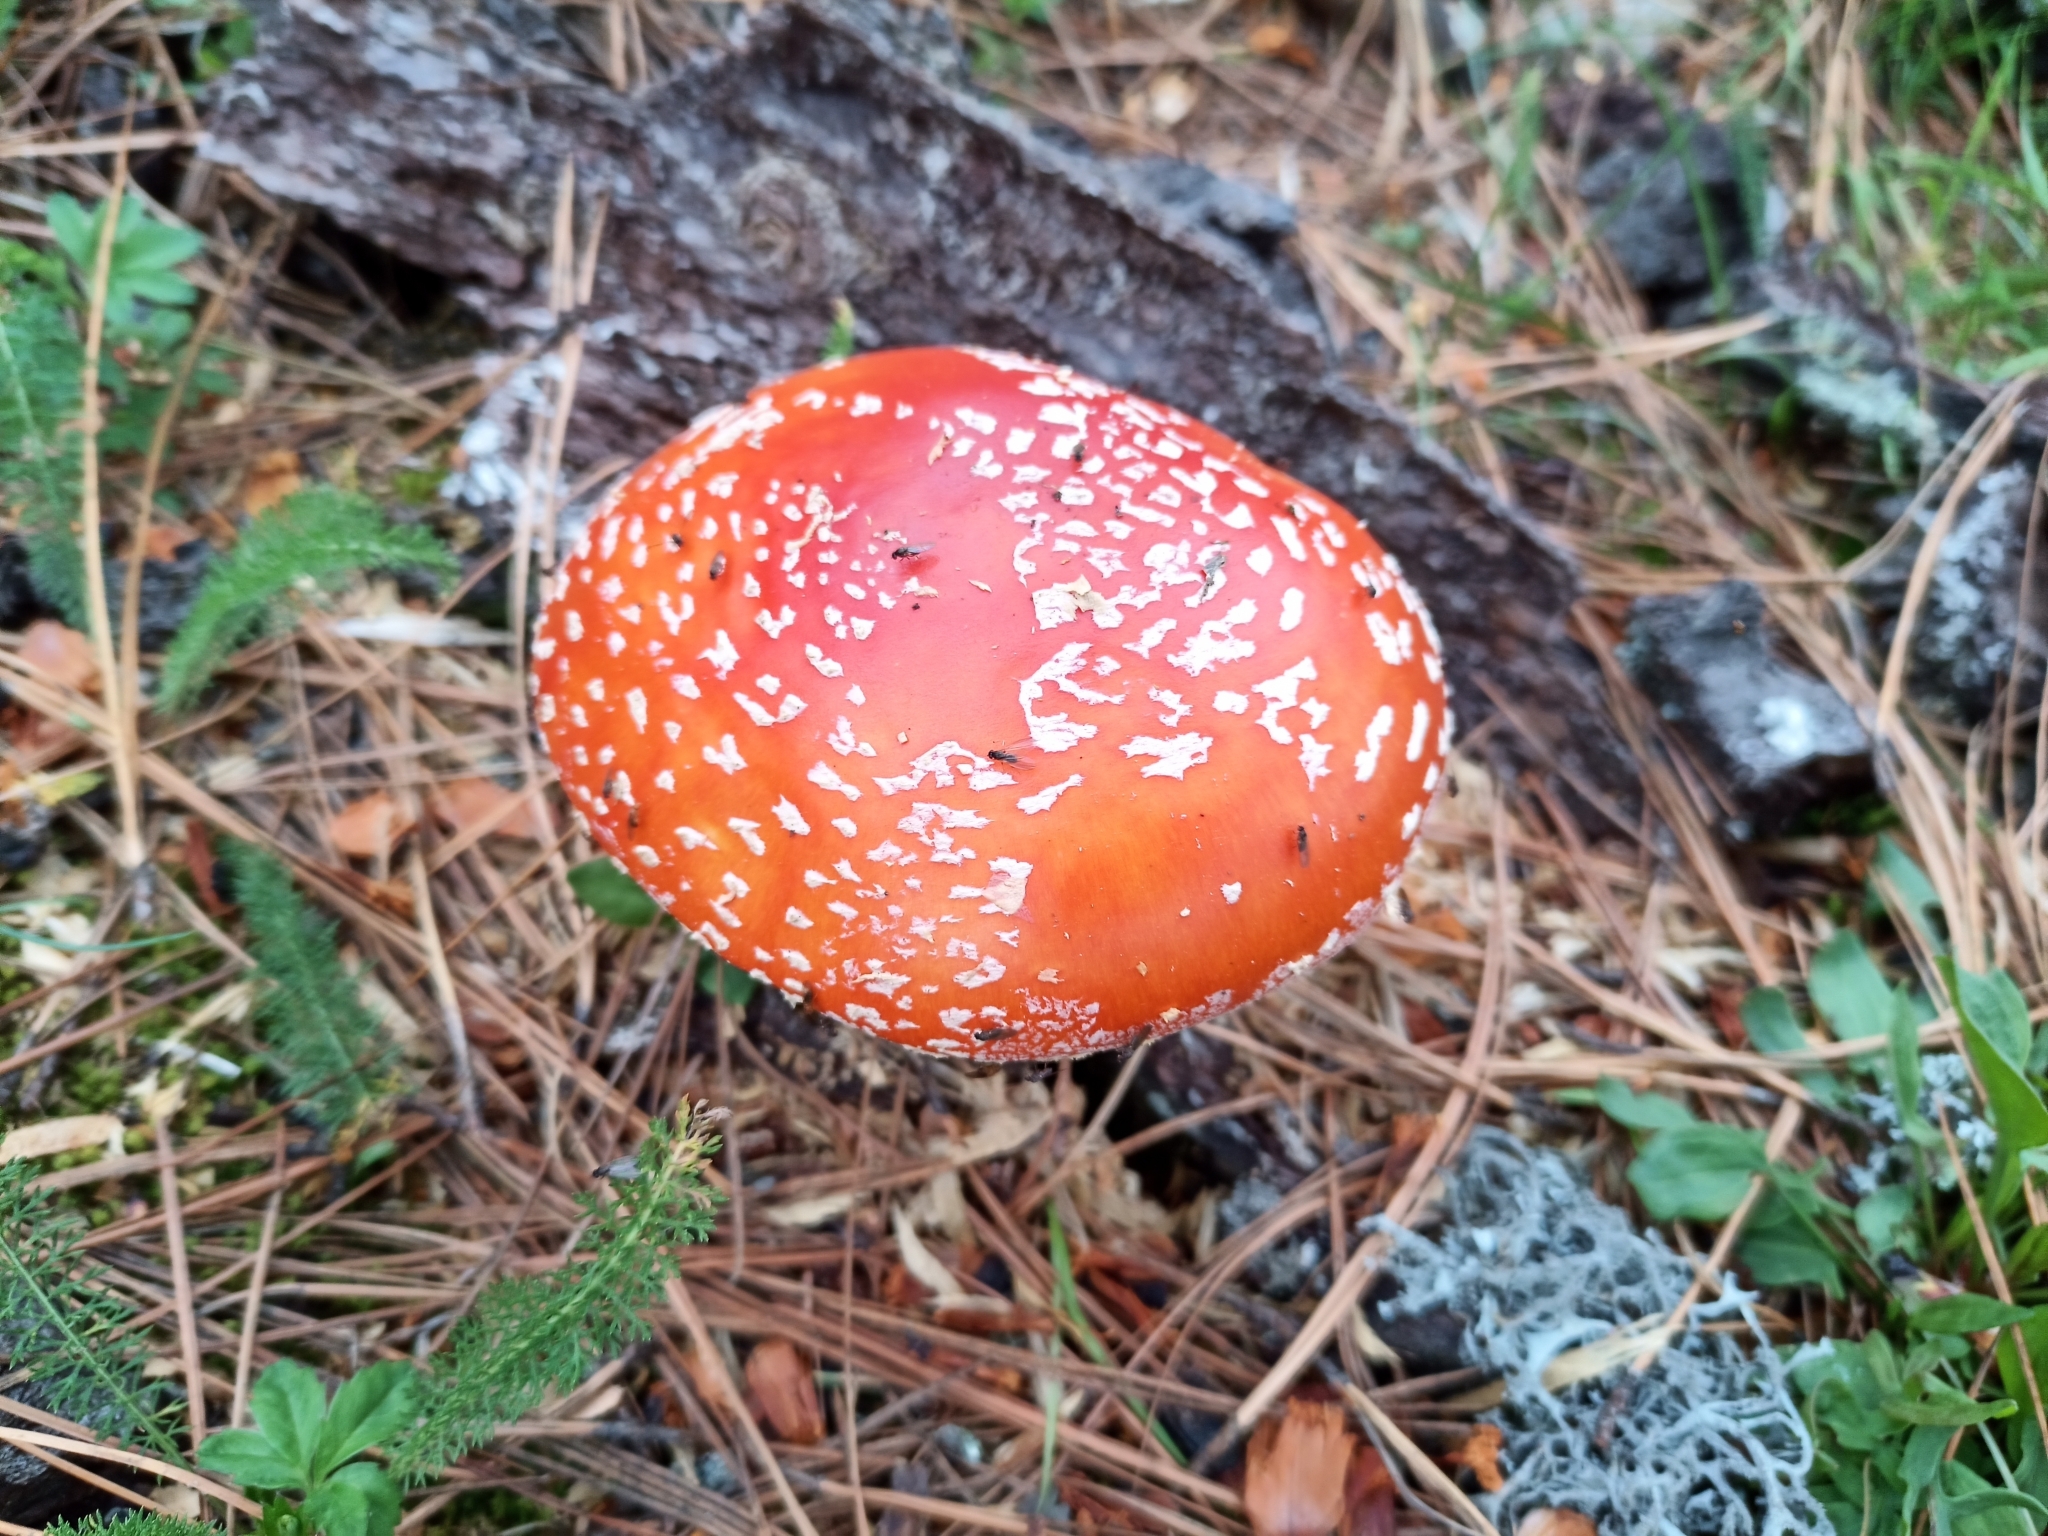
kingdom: Fungi
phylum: Basidiomycota
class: Agaricomycetes
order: Agaricales
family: Amanitaceae
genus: Amanita
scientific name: Amanita muscaria
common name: Fly agaric
